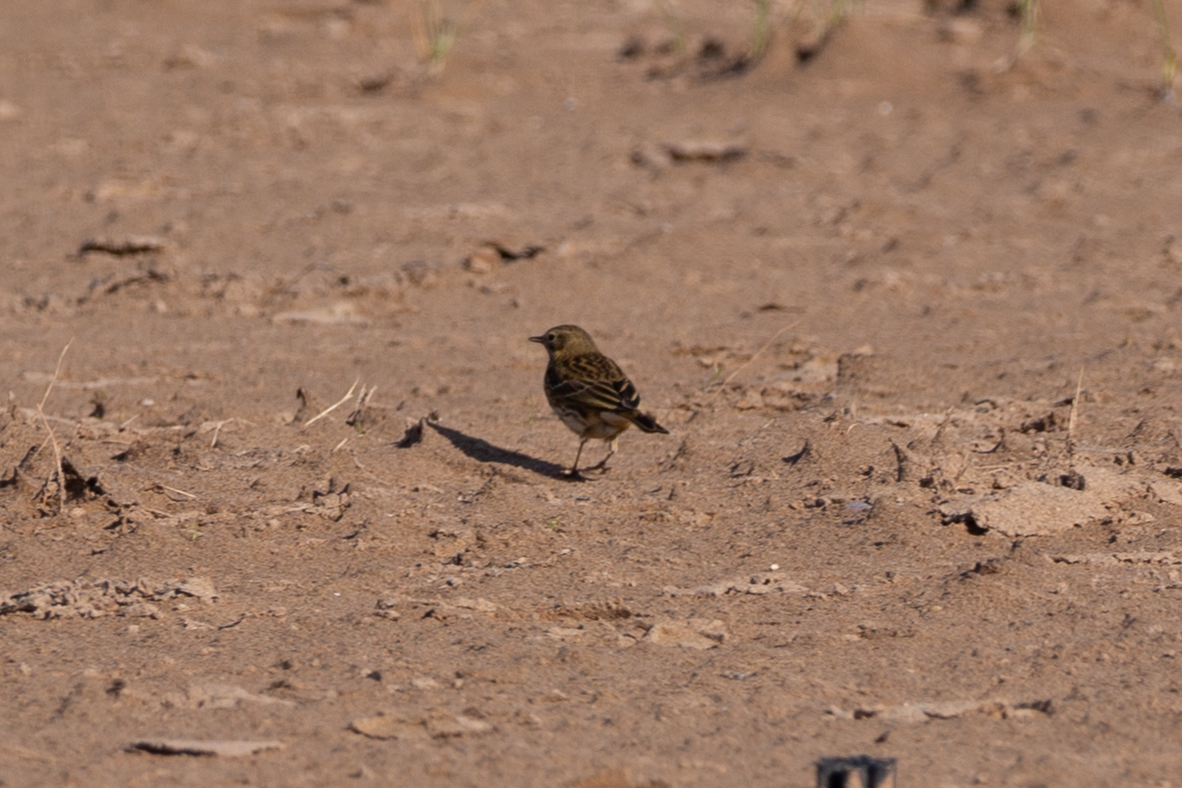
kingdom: Animalia
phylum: Chordata
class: Aves
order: Passeriformes
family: Motacillidae
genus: Anthus
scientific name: Anthus pratensis
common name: Meadow pipit
